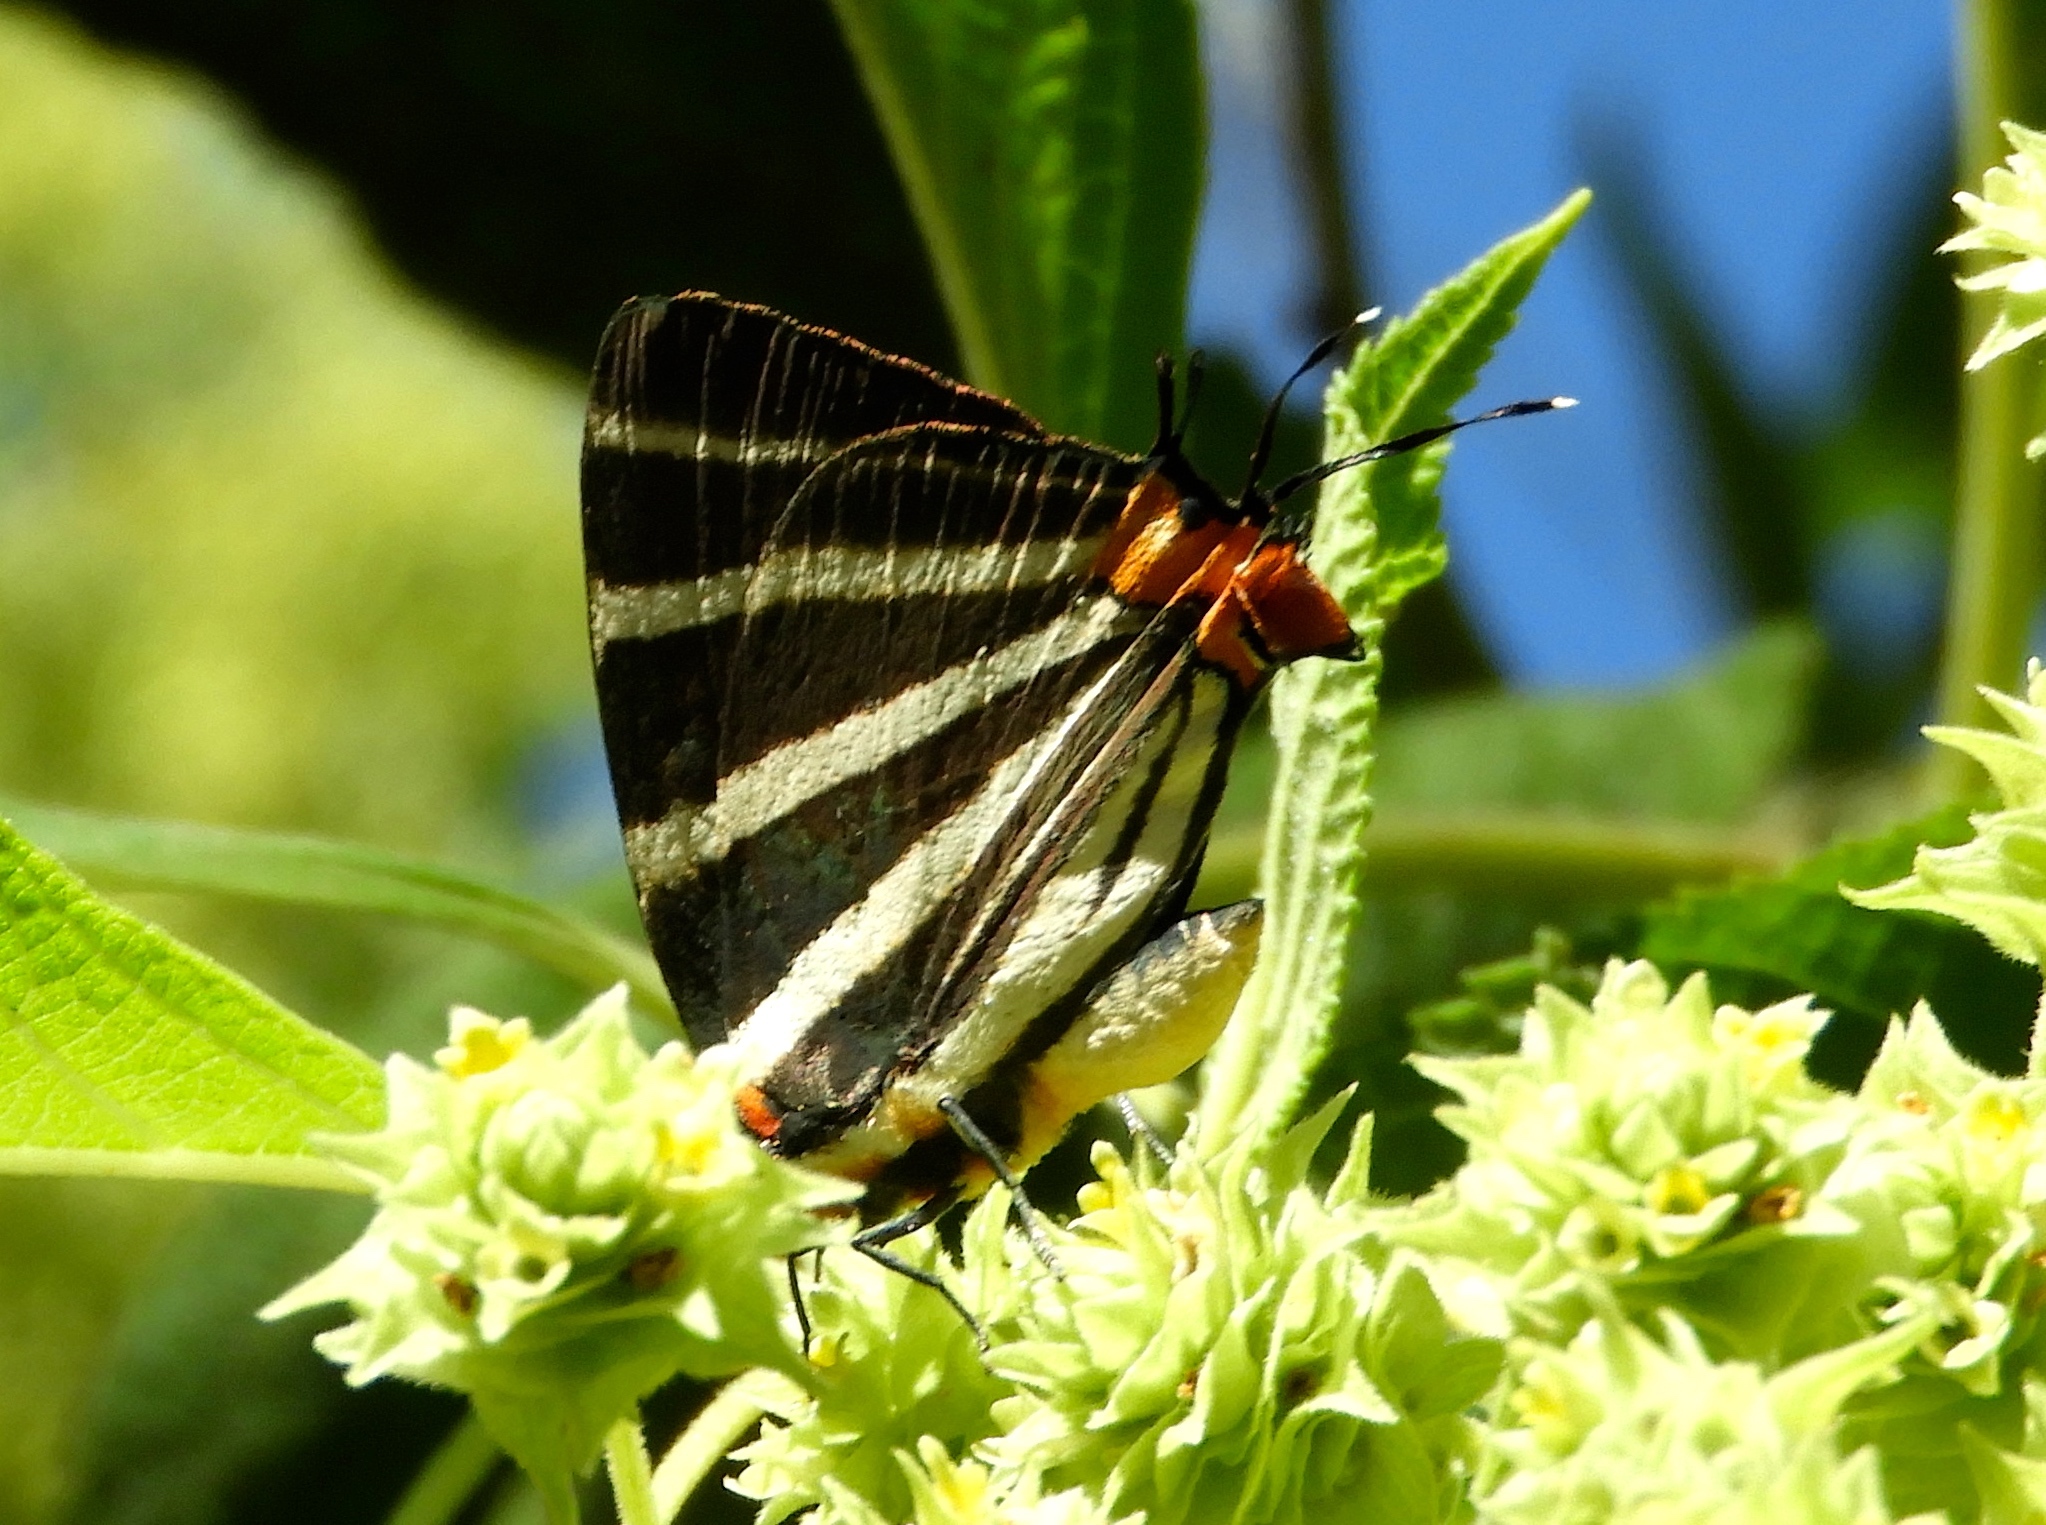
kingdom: Animalia
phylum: Arthropoda
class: Insecta
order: Lepidoptera
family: Lycaenidae
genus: Thecla
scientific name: Thecla bathildis
